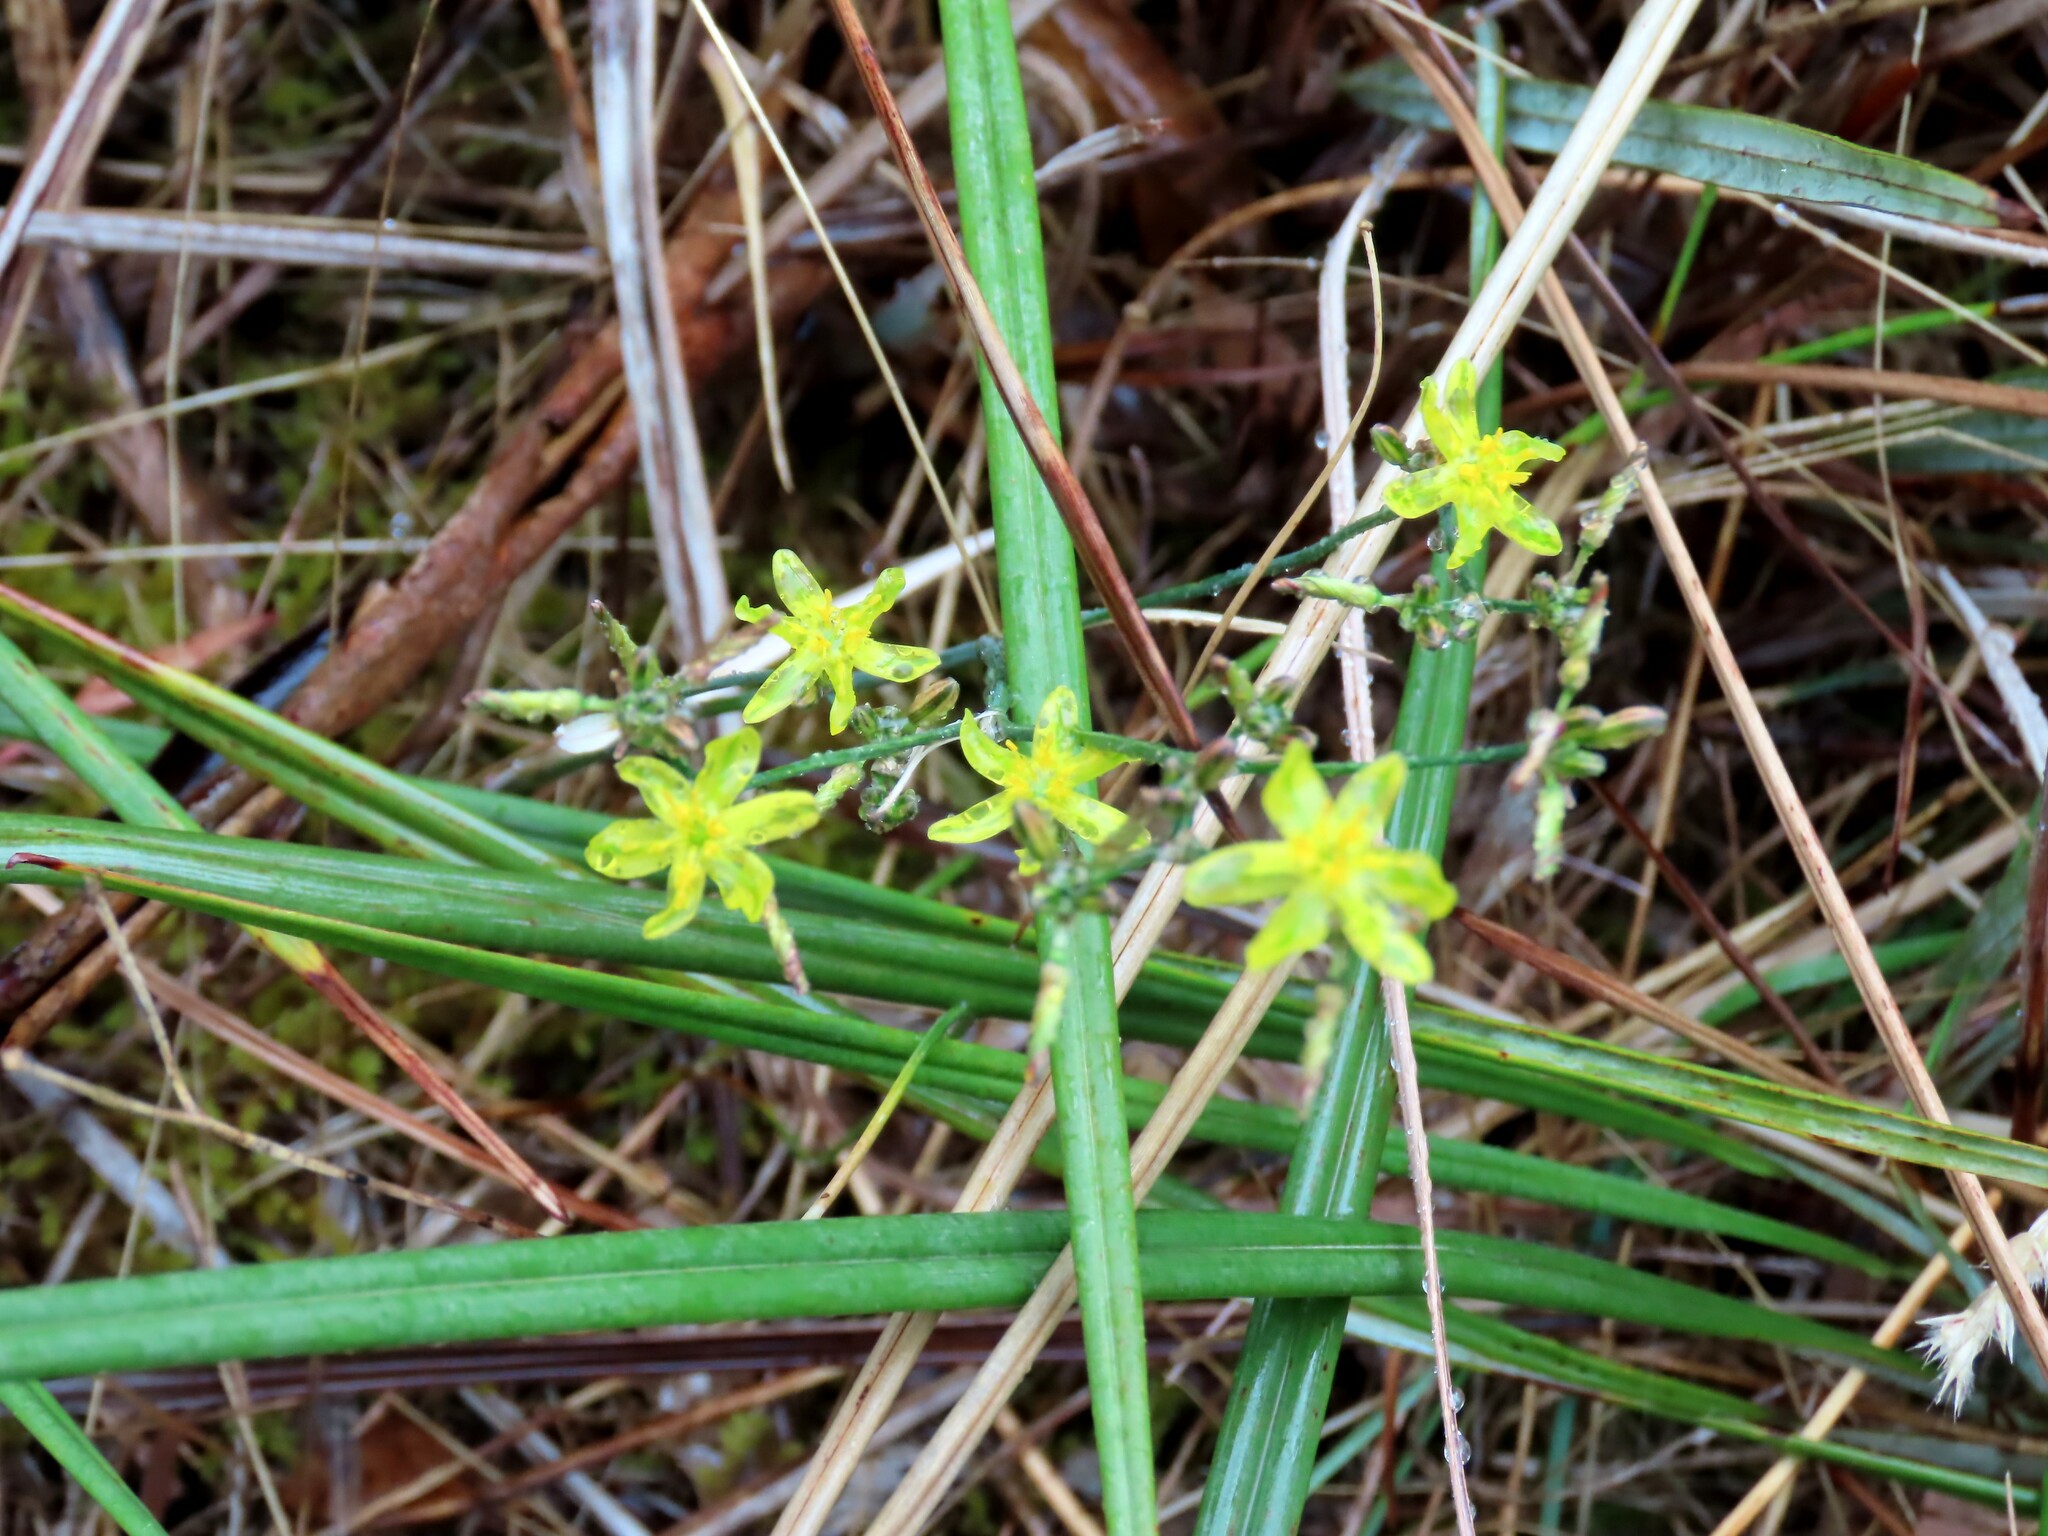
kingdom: Plantae
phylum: Tracheophyta
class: Liliopsida
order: Asparagales
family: Asphodelaceae
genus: Tricoryne
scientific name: Tricoryne elatior
